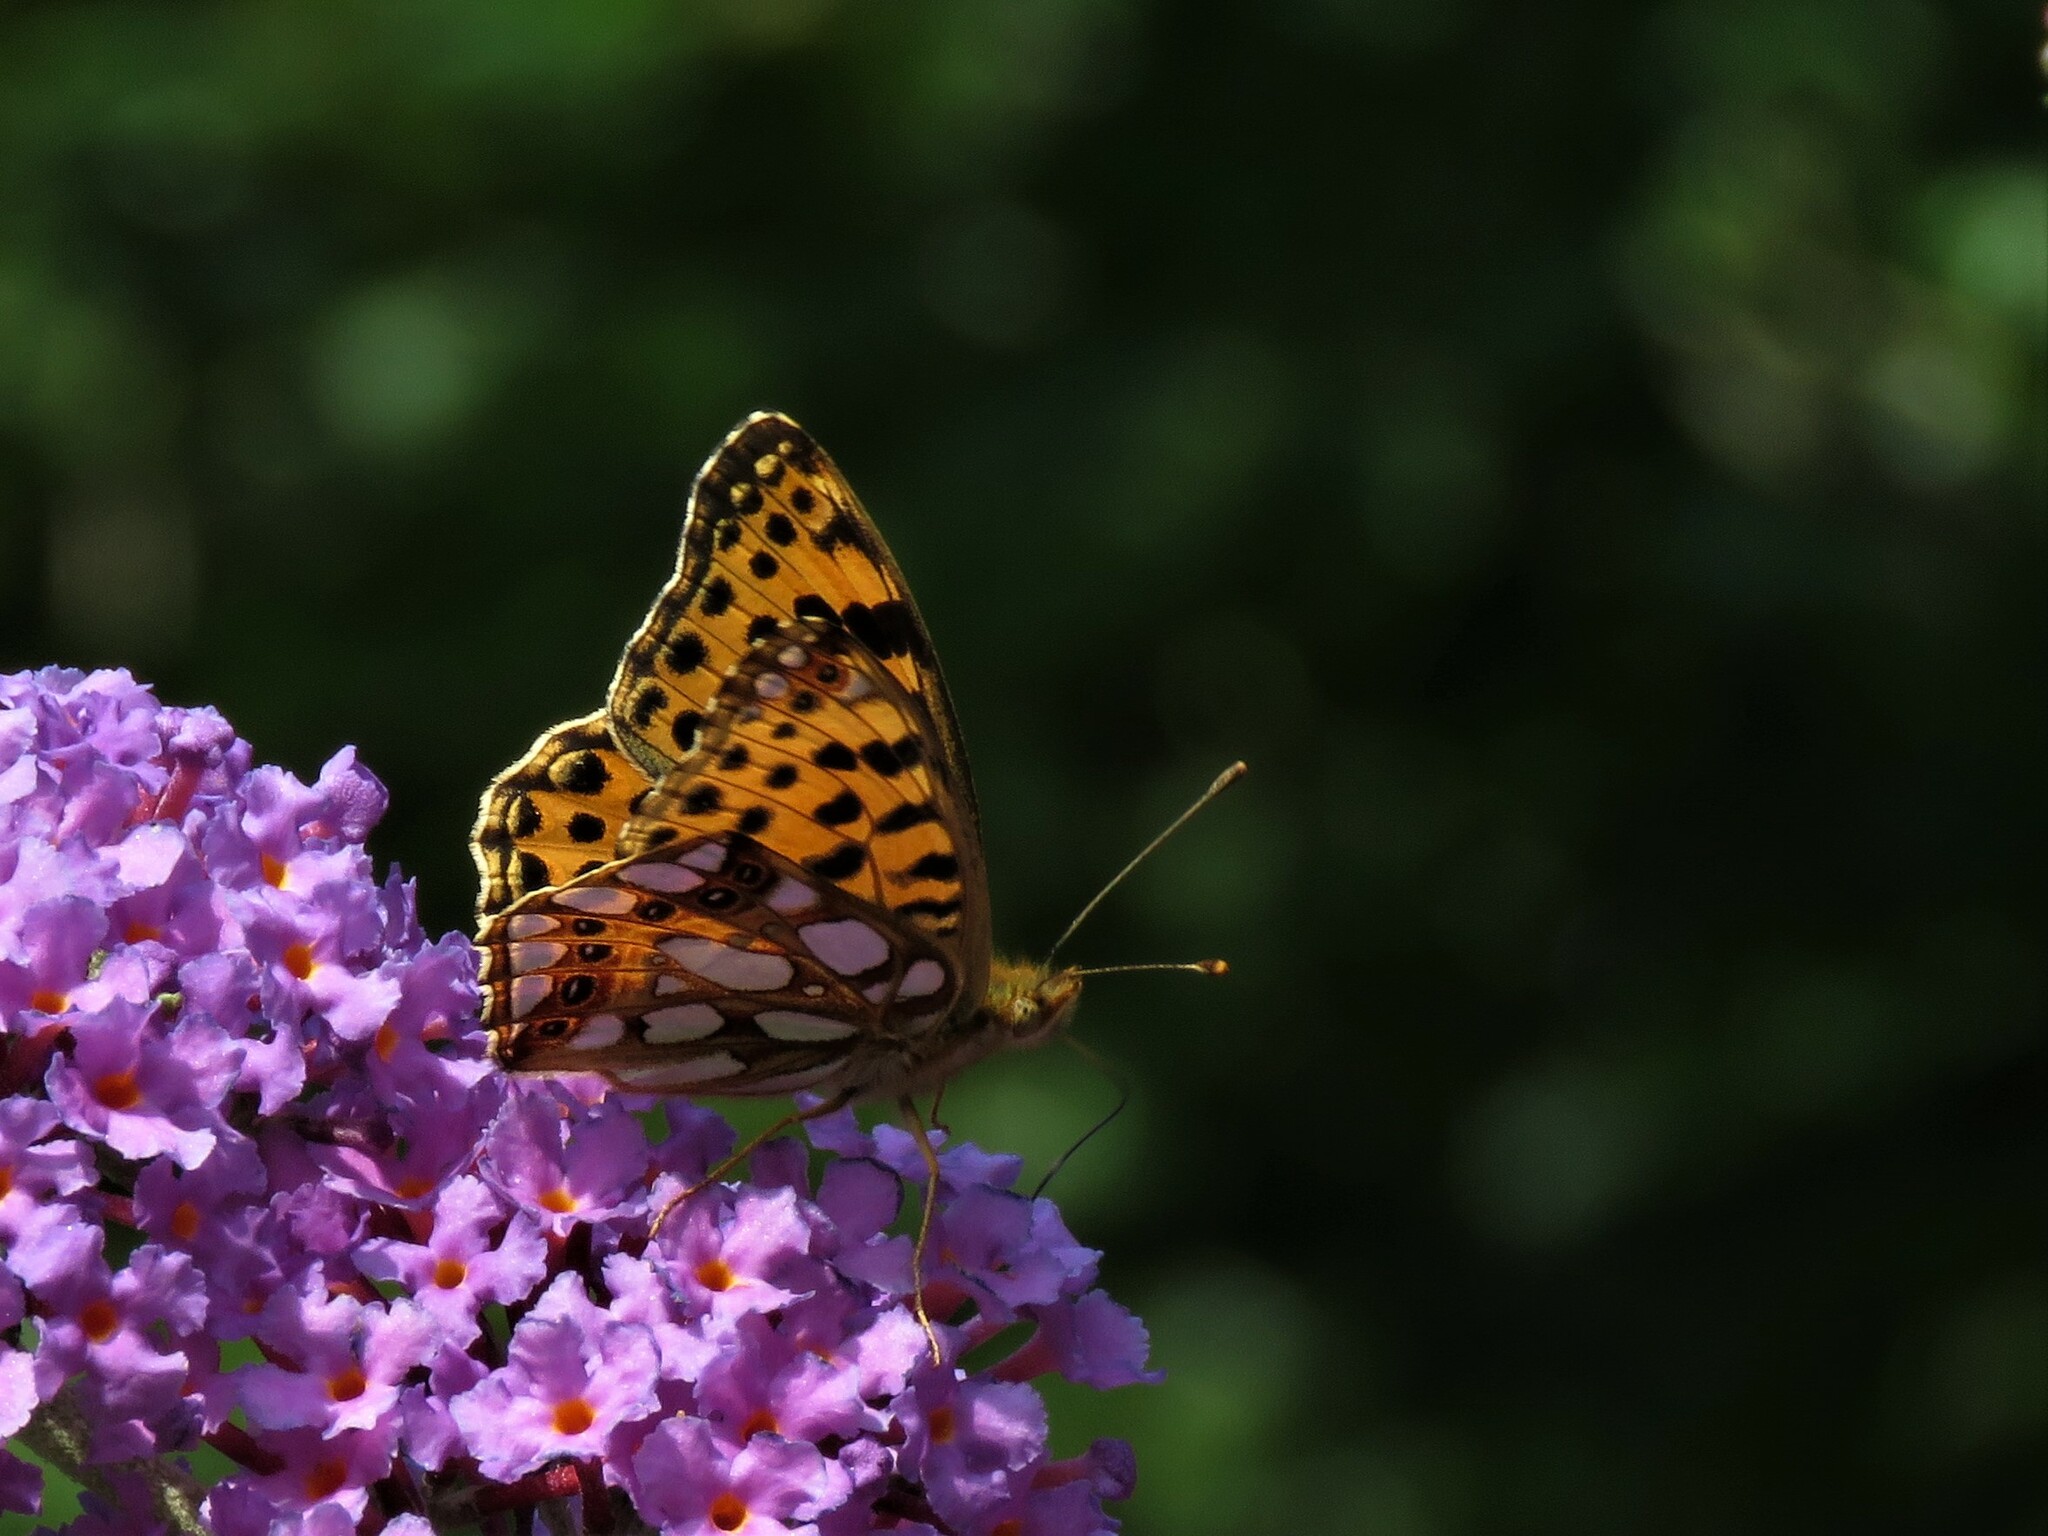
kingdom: Animalia
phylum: Arthropoda
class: Insecta
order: Lepidoptera
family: Nymphalidae
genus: Issoria
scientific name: Issoria lathonia
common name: Queen of spain fritillary
